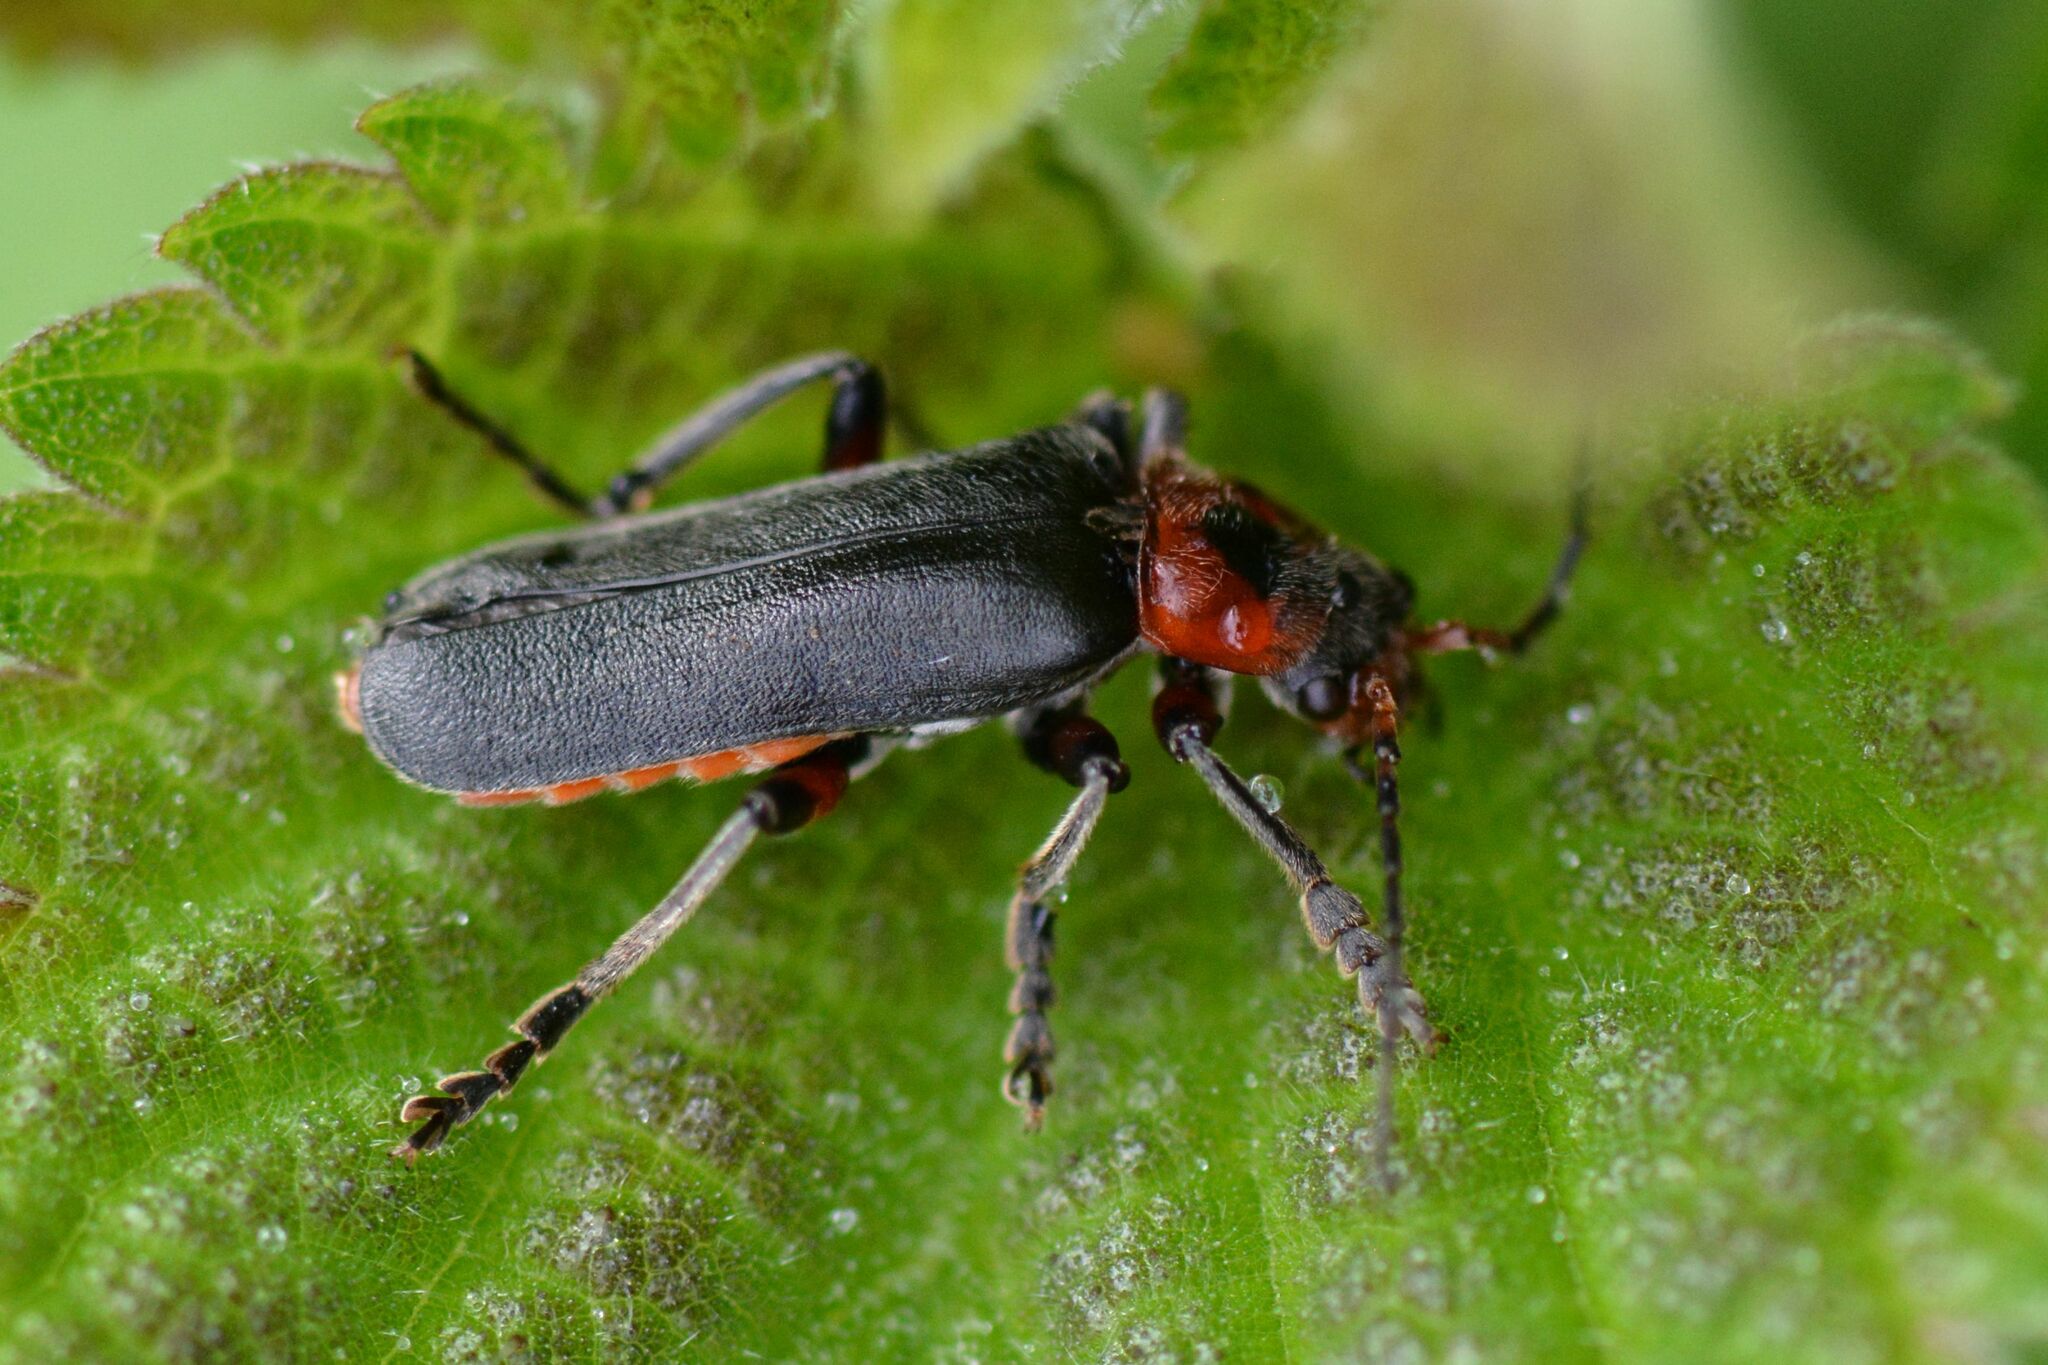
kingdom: Animalia
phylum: Arthropoda
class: Insecta
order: Coleoptera
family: Cantharidae
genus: Cantharis
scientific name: Cantharis rustica
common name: Soldier beetle
